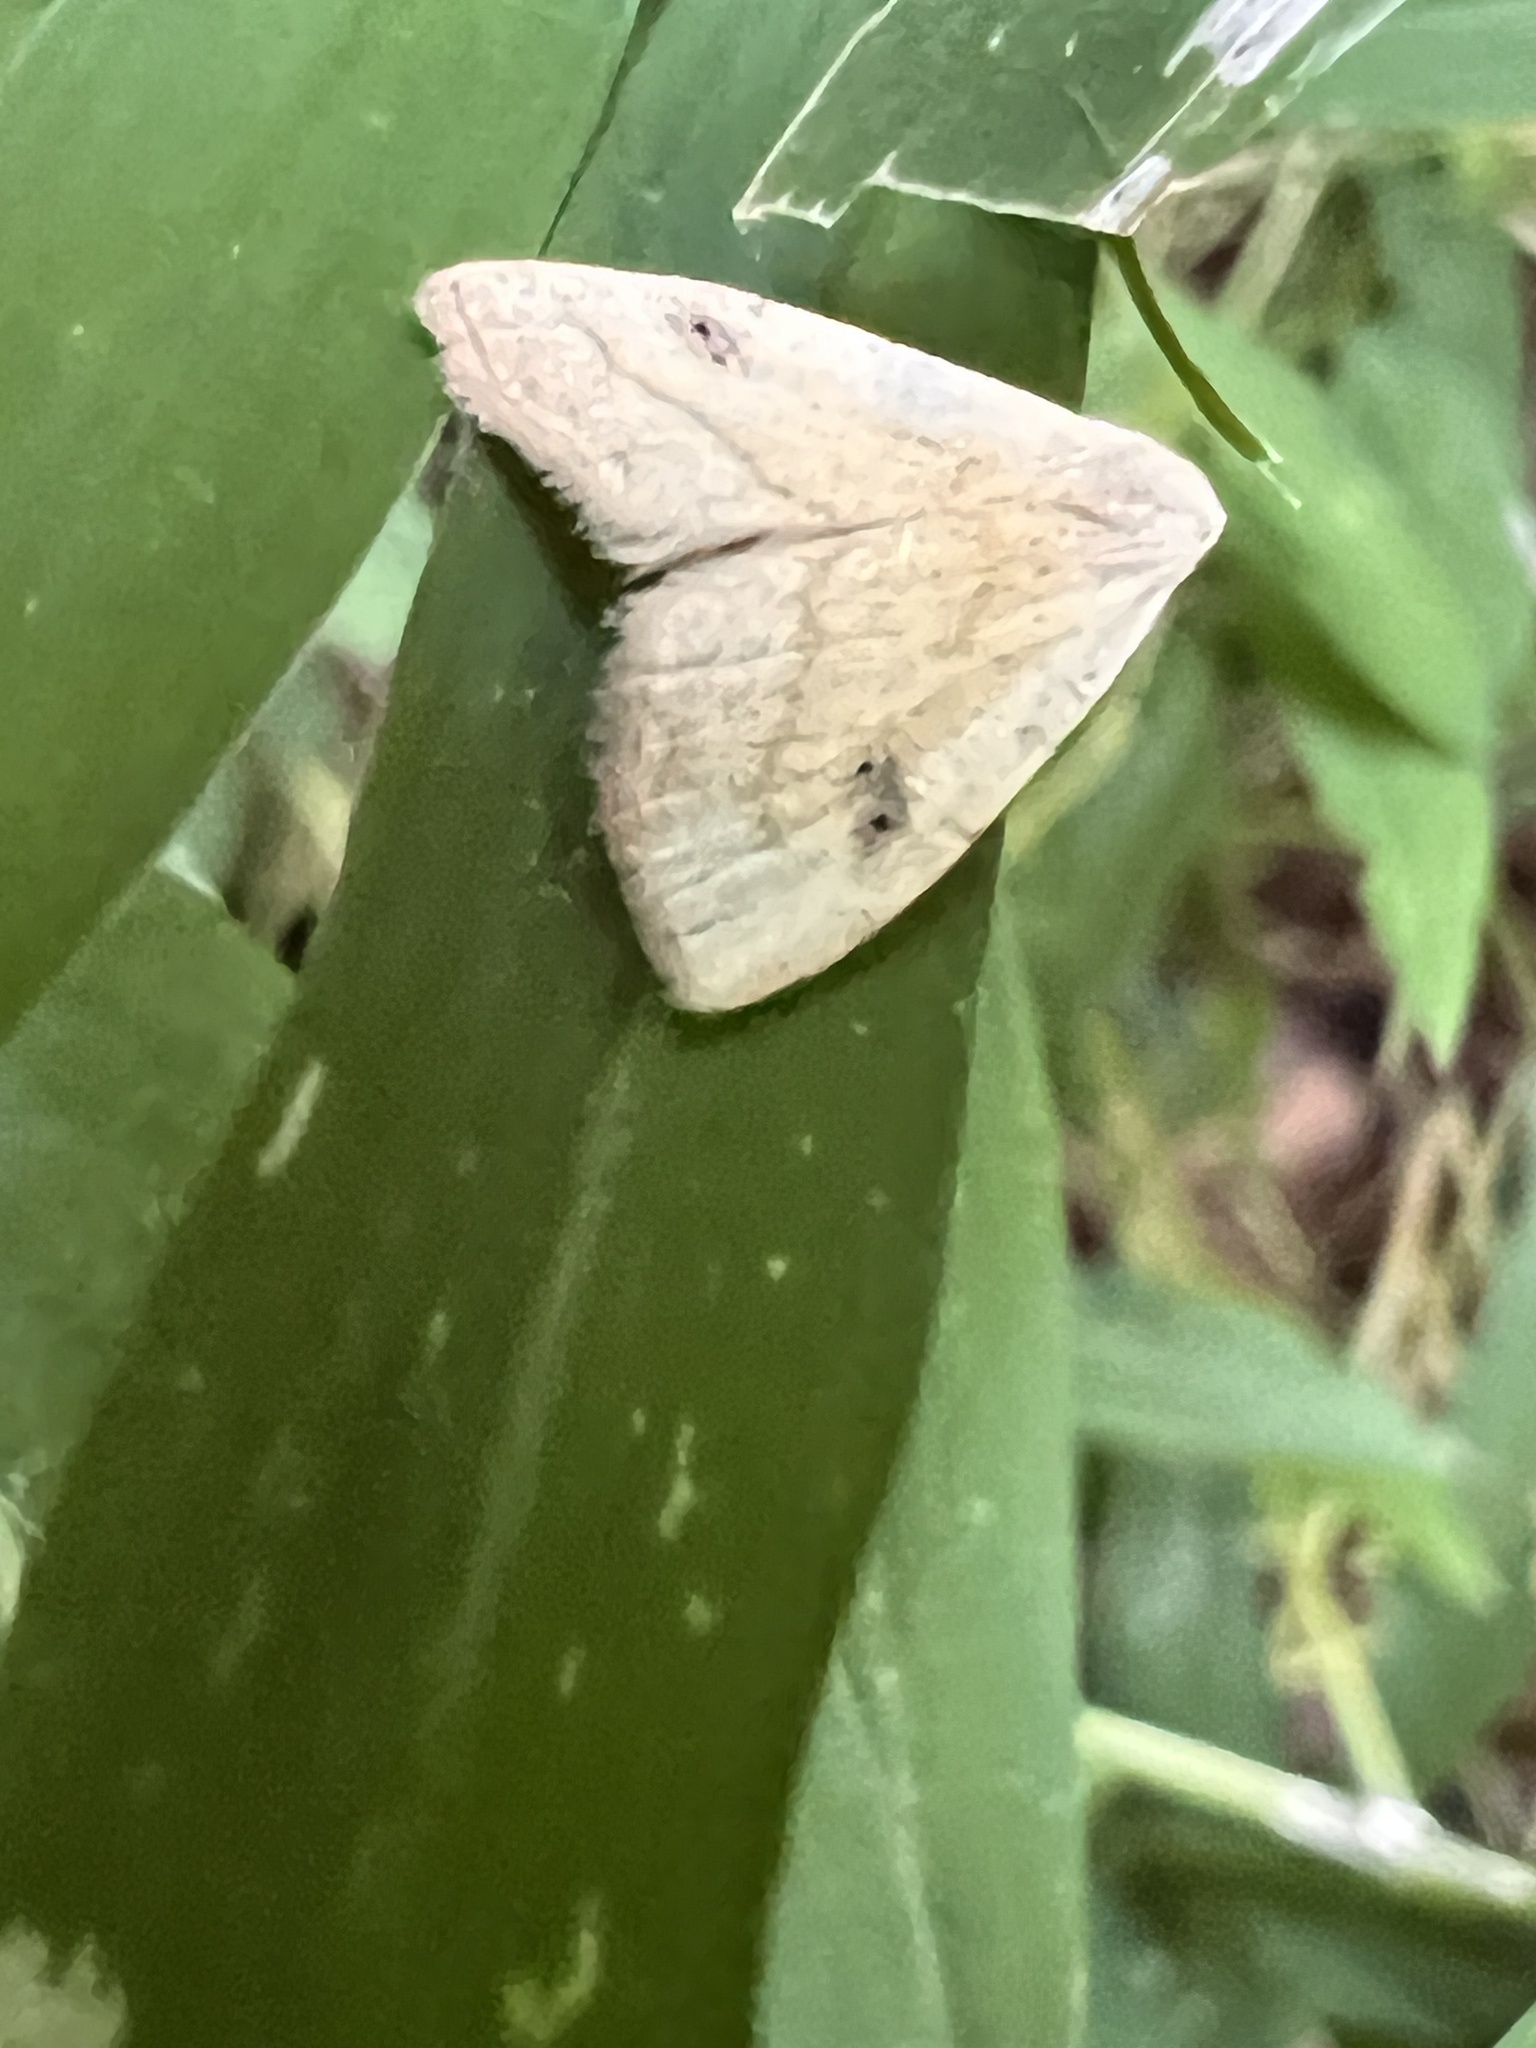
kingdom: Animalia
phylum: Arthropoda
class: Insecta
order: Lepidoptera
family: Erebidae
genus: Rivula
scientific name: Rivula propinqualis
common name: Spotted grass moth
